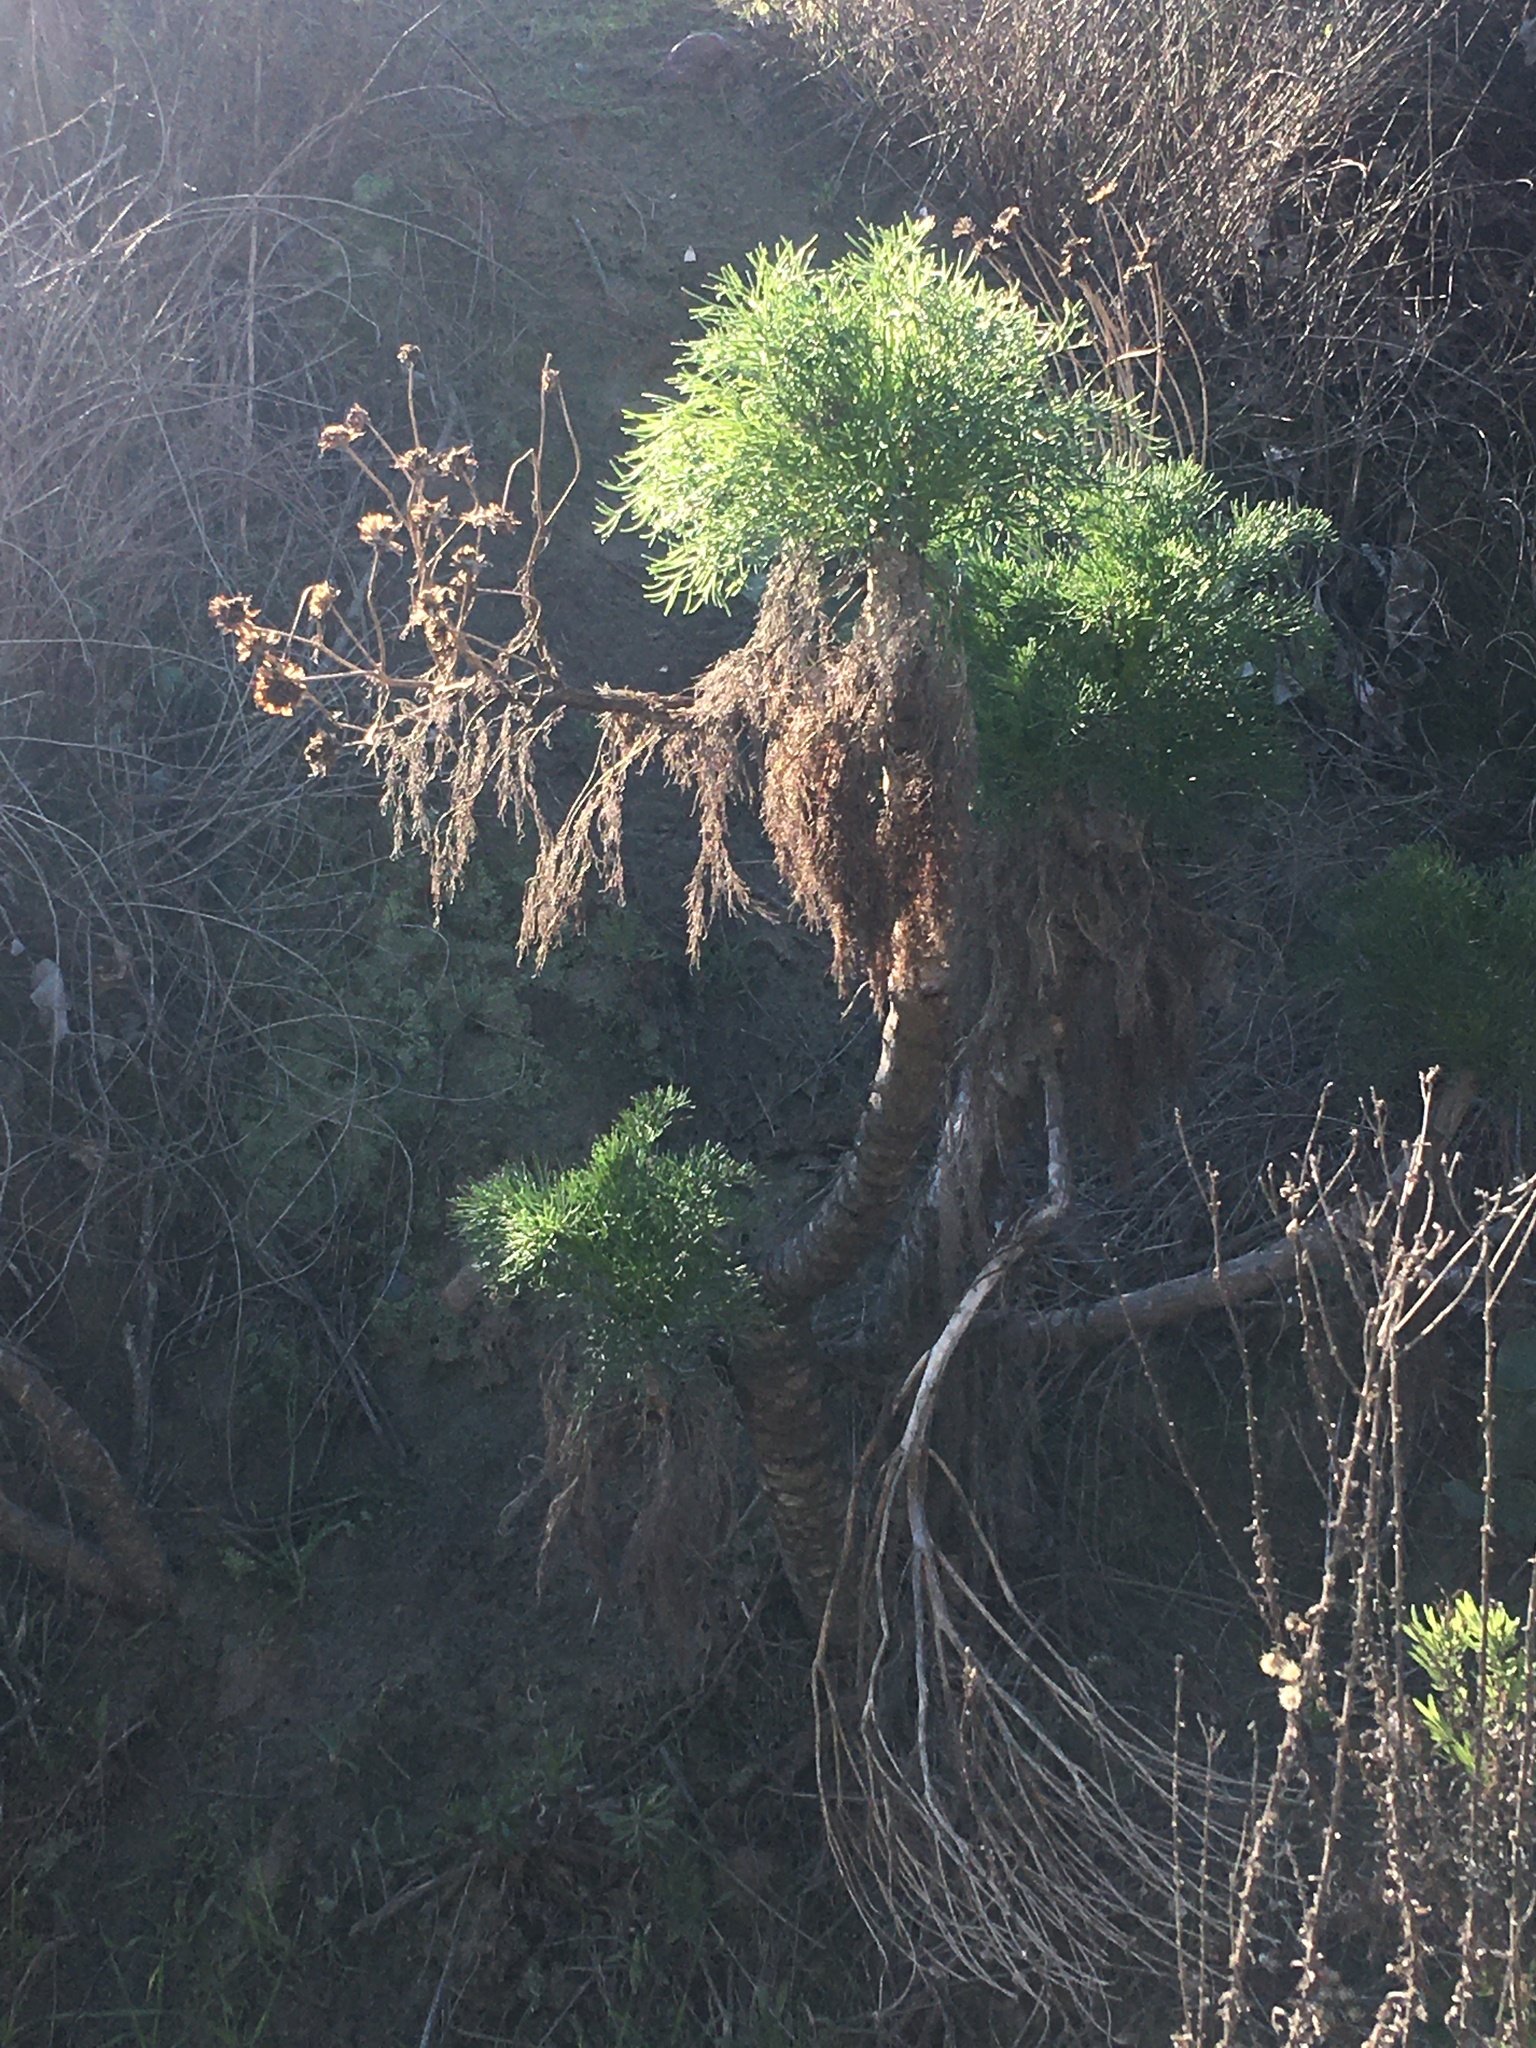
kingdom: Plantae
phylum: Tracheophyta
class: Magnoliopsida
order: Asterales
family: Asteraceae
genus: Coreopsis
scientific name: Coreopsis gigantea
